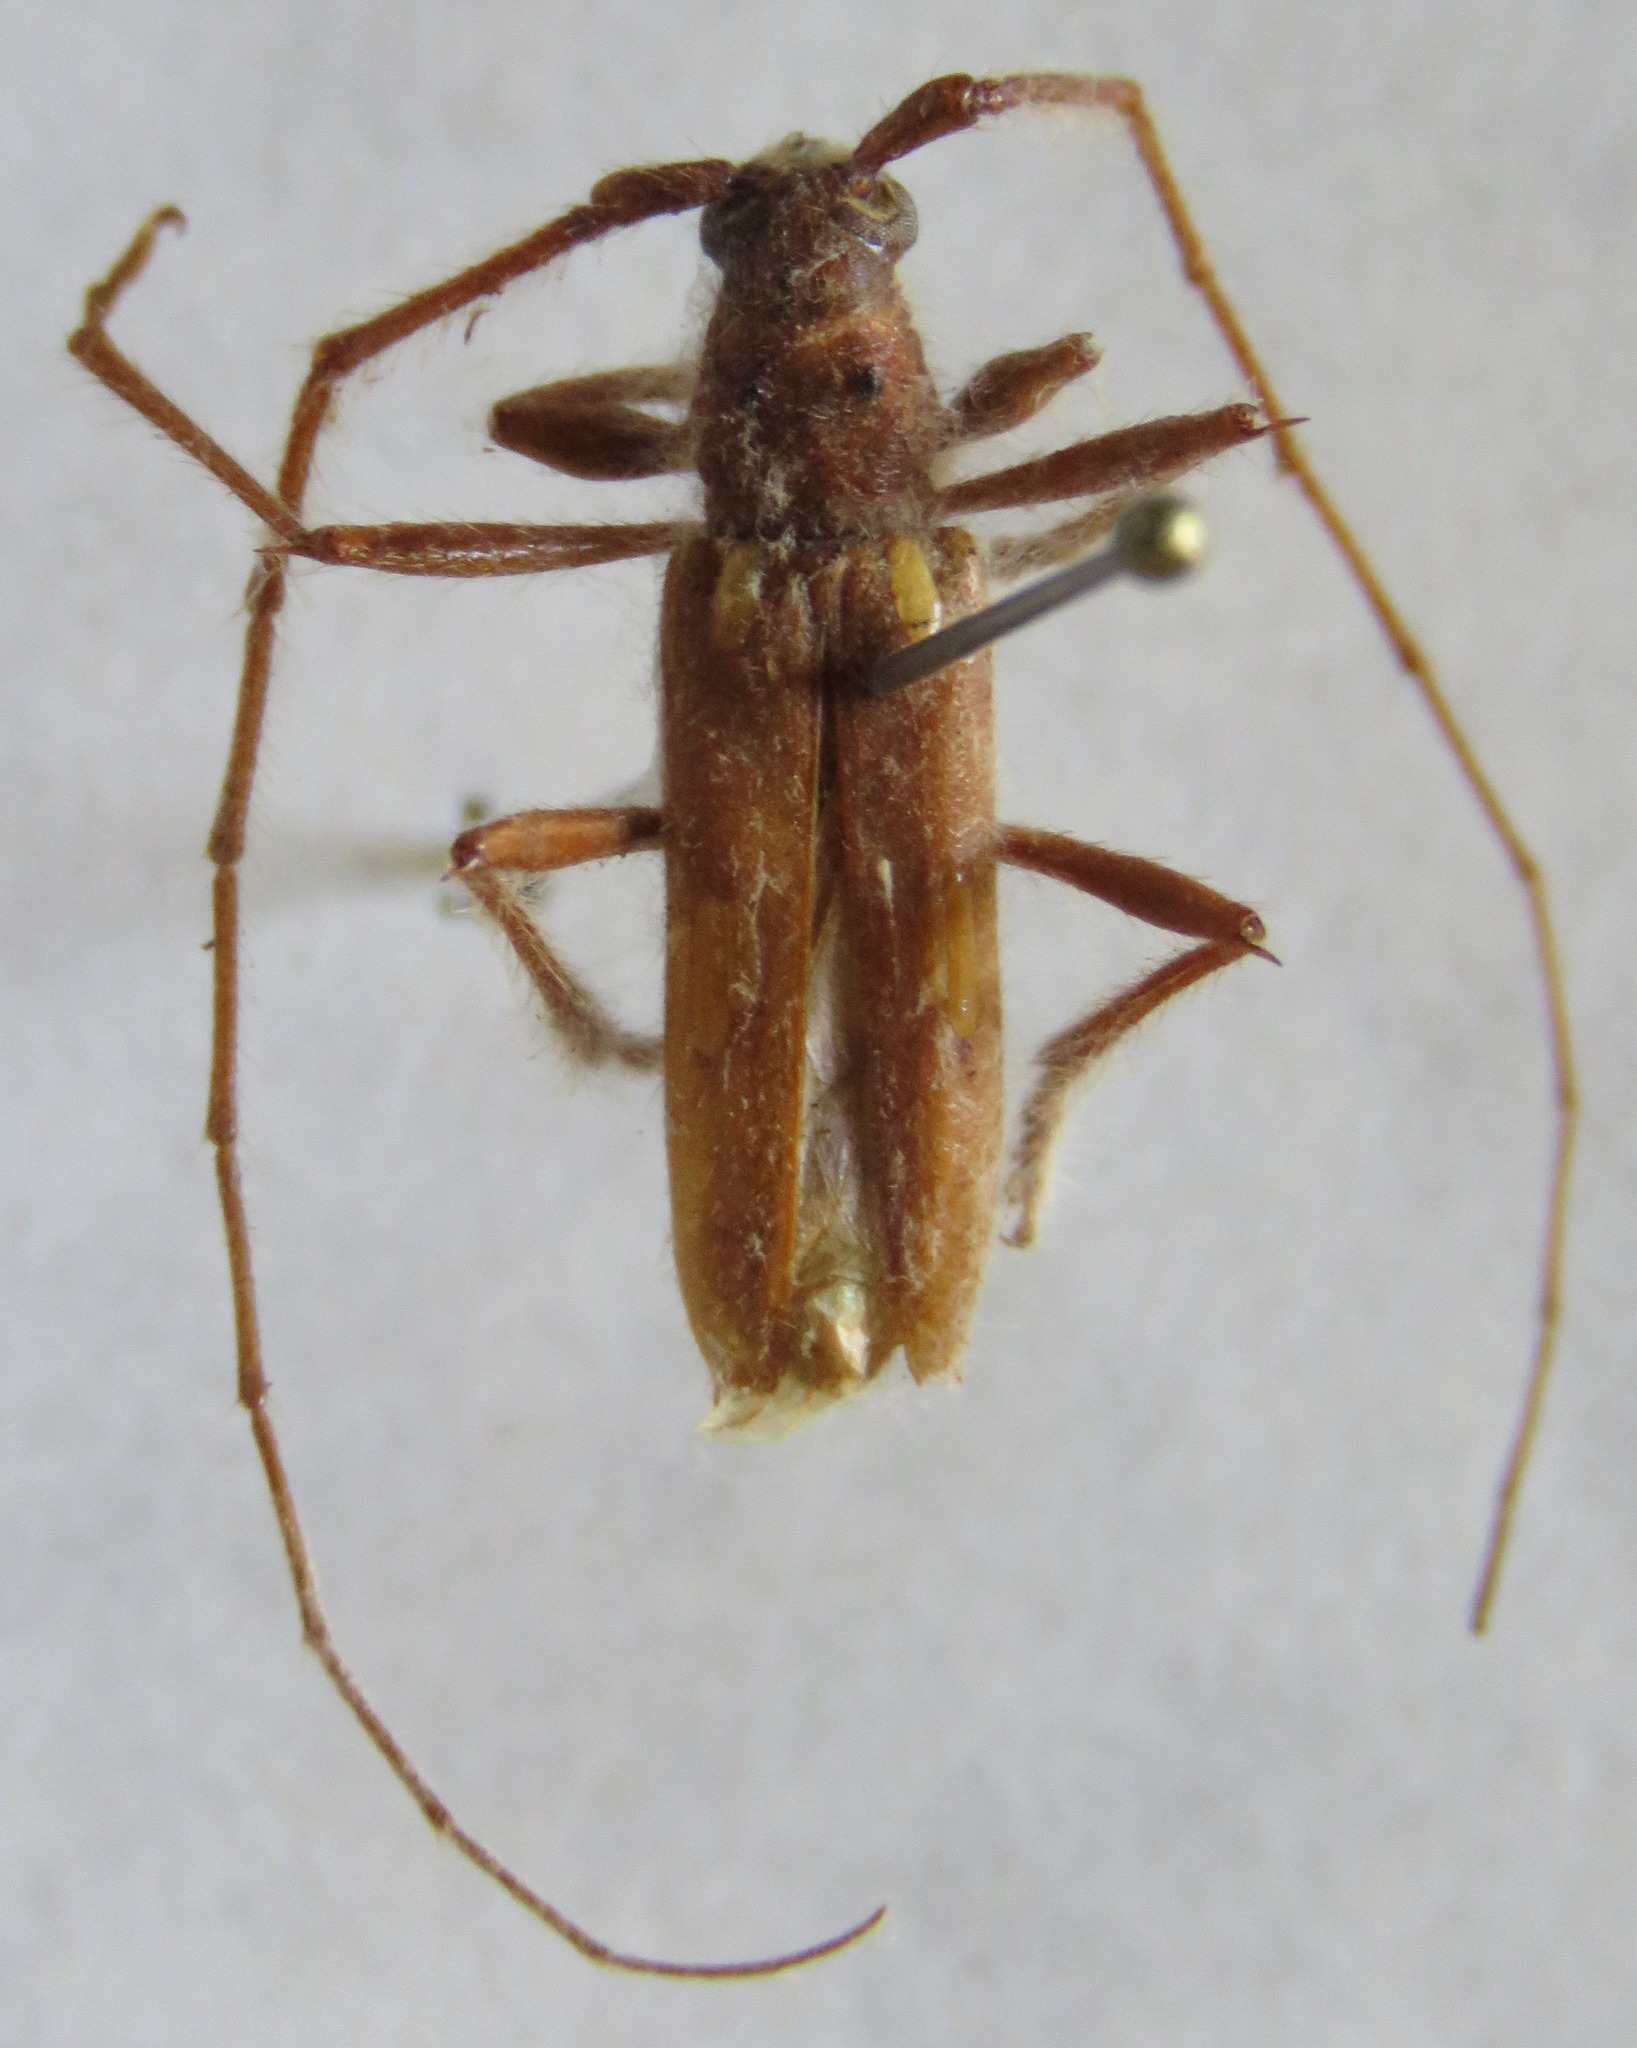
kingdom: Animalia
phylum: Arthropoda
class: Insecta
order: Coleoptera
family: Cerambycidae
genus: Eburodacrys
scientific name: Eburodacrys callixantha
